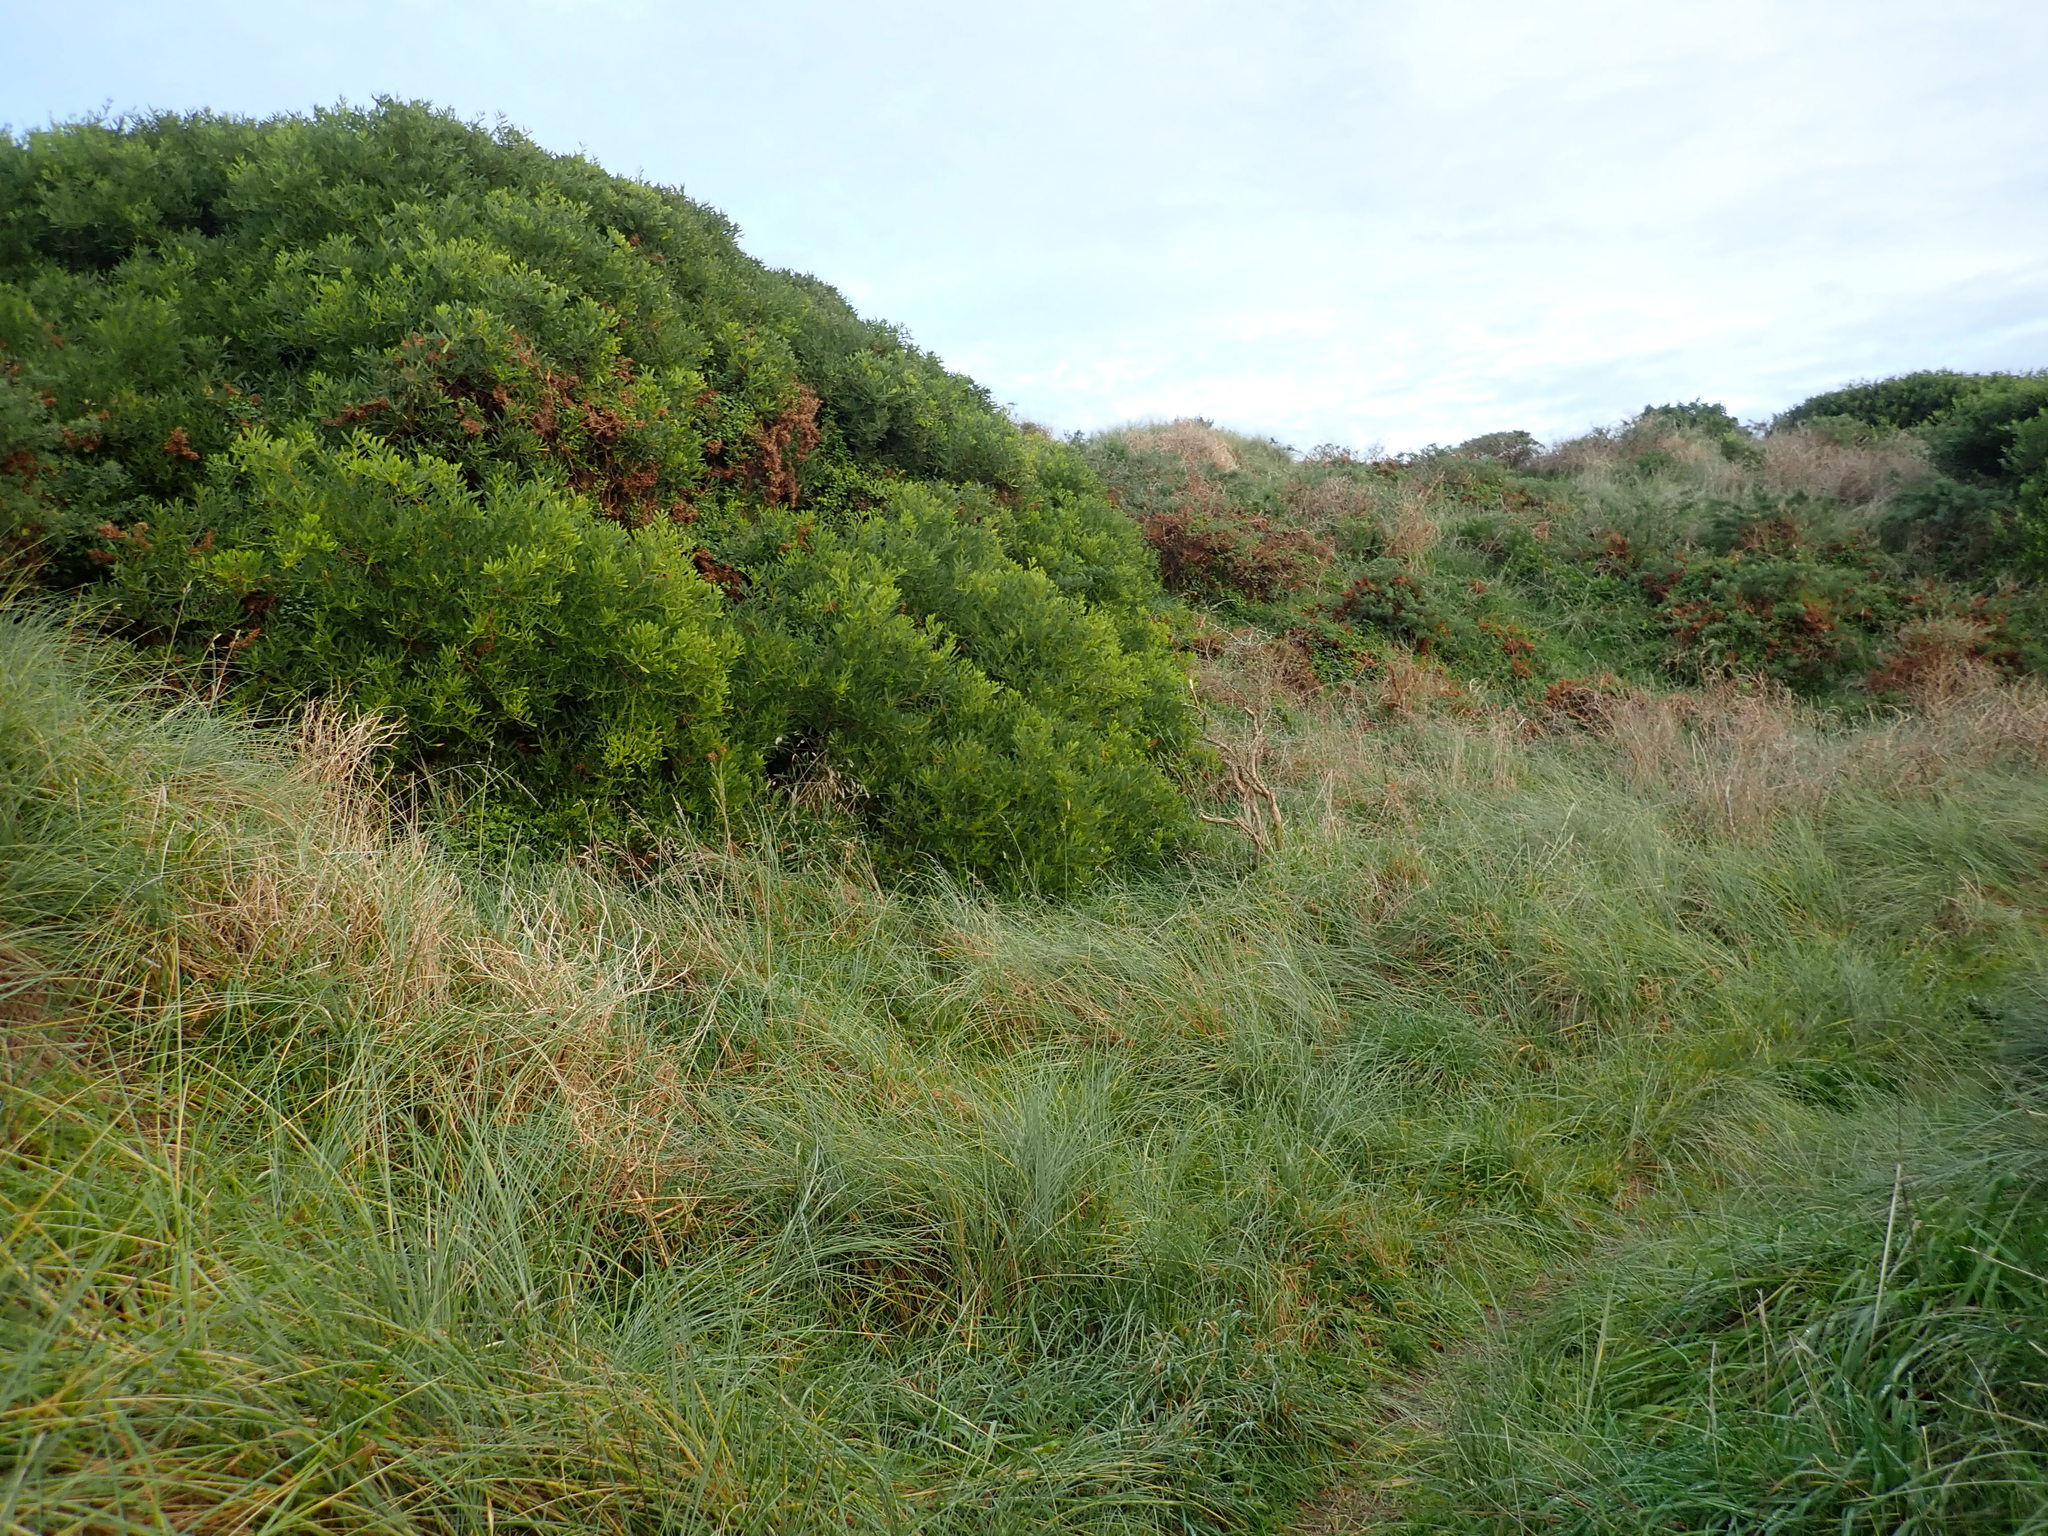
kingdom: Plantae
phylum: Tracheophyta
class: Magnoliopsida
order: Fabales
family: Fabaceae
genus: Acacia
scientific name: Acacia longifolia
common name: Sydney golden wattle
